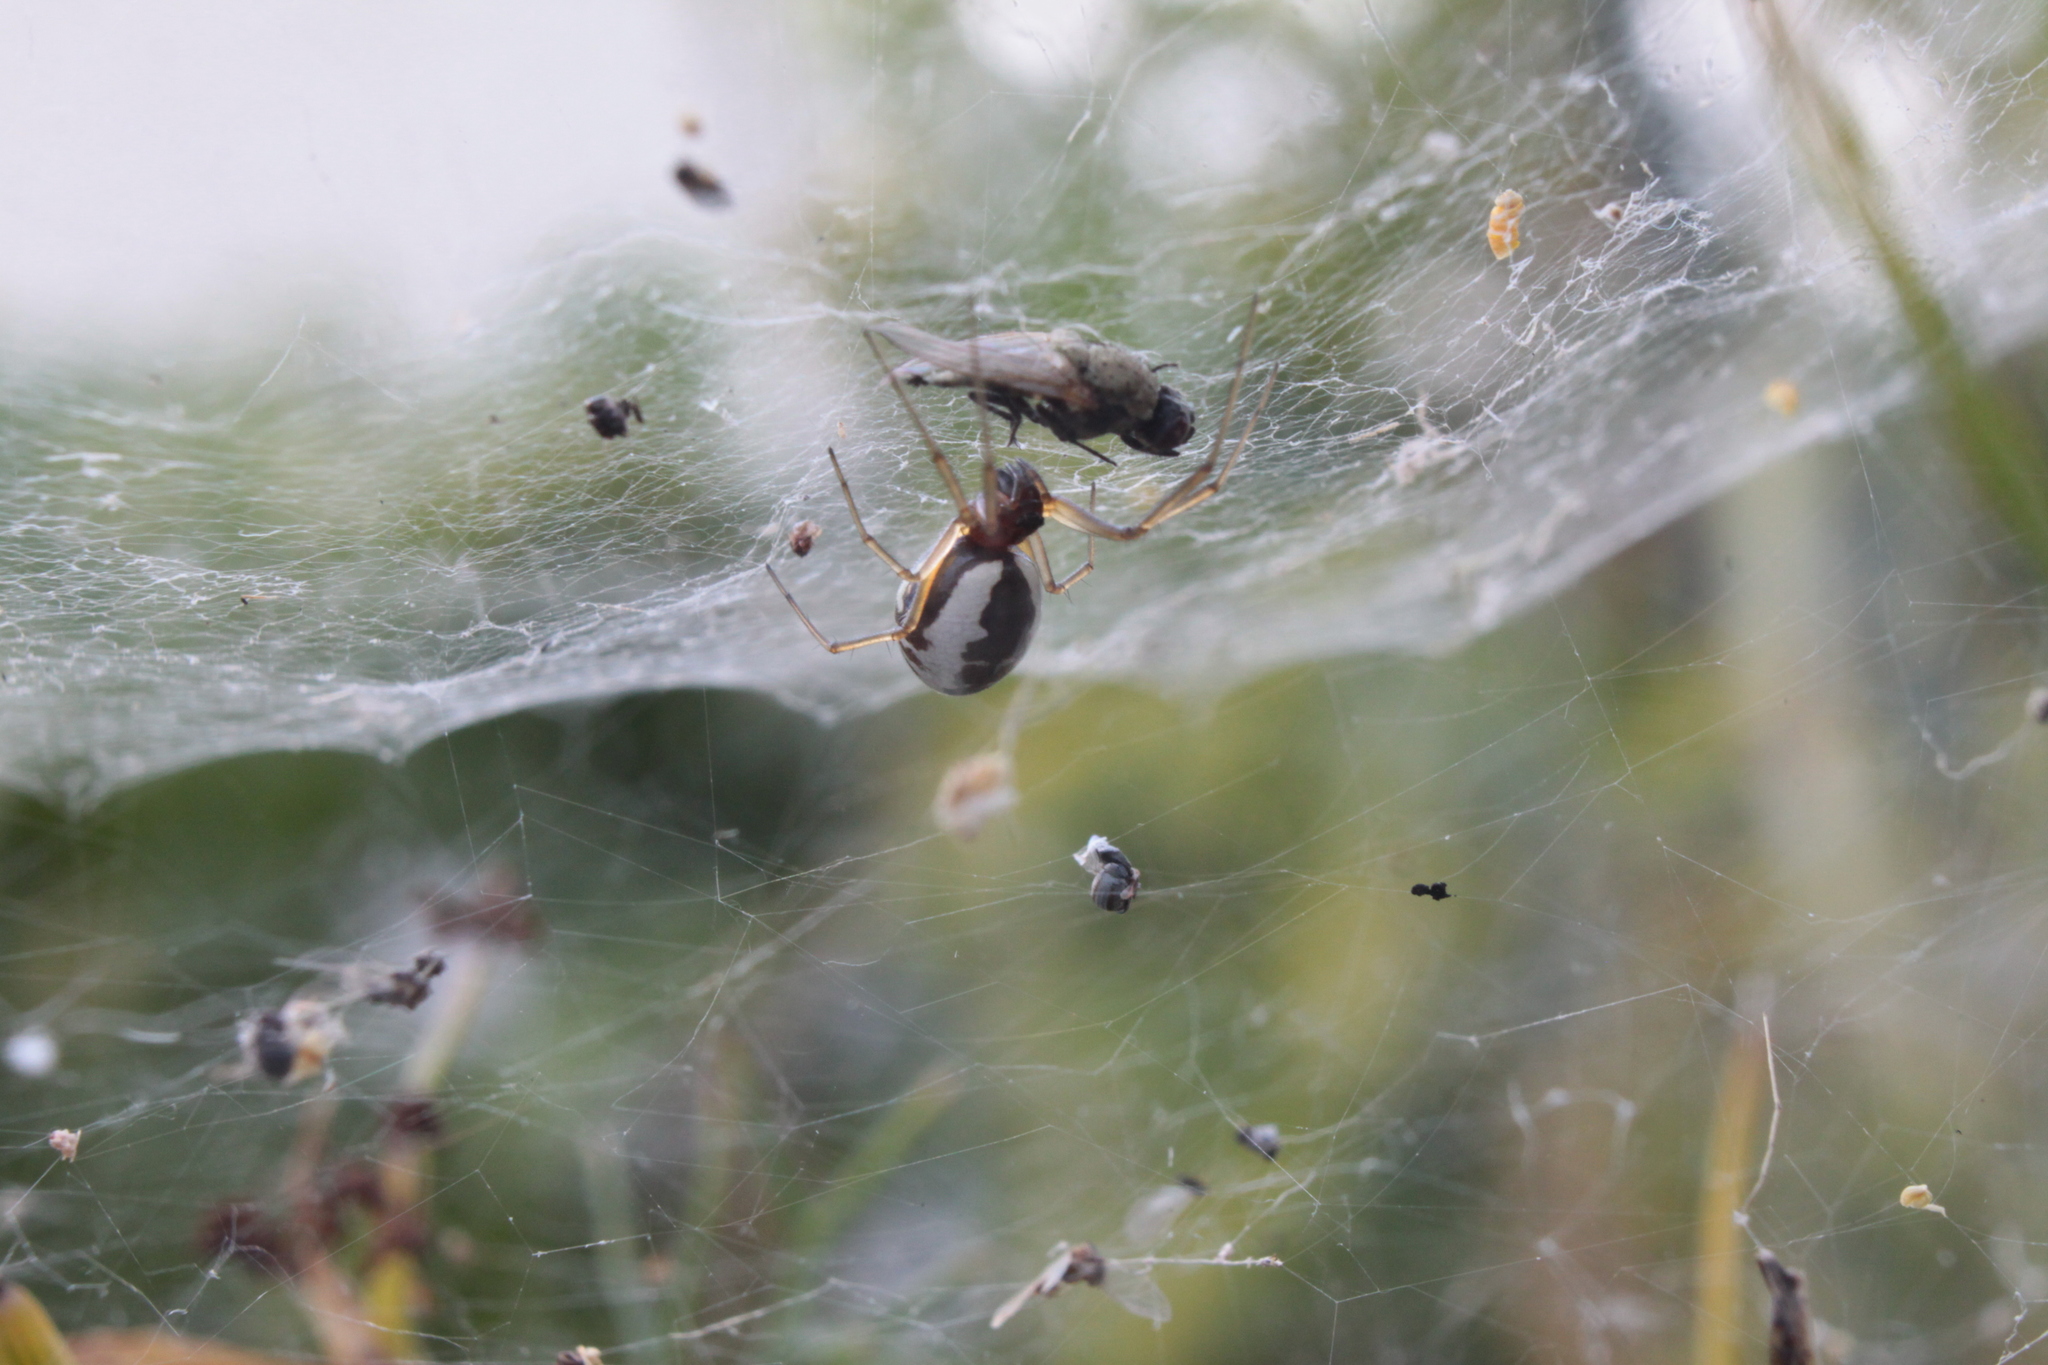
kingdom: Animalia
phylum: Arthropoda
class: Arachnida
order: Araneae
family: Linyphiidae
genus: Frontinellina
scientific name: Frontinellina frutetorum
